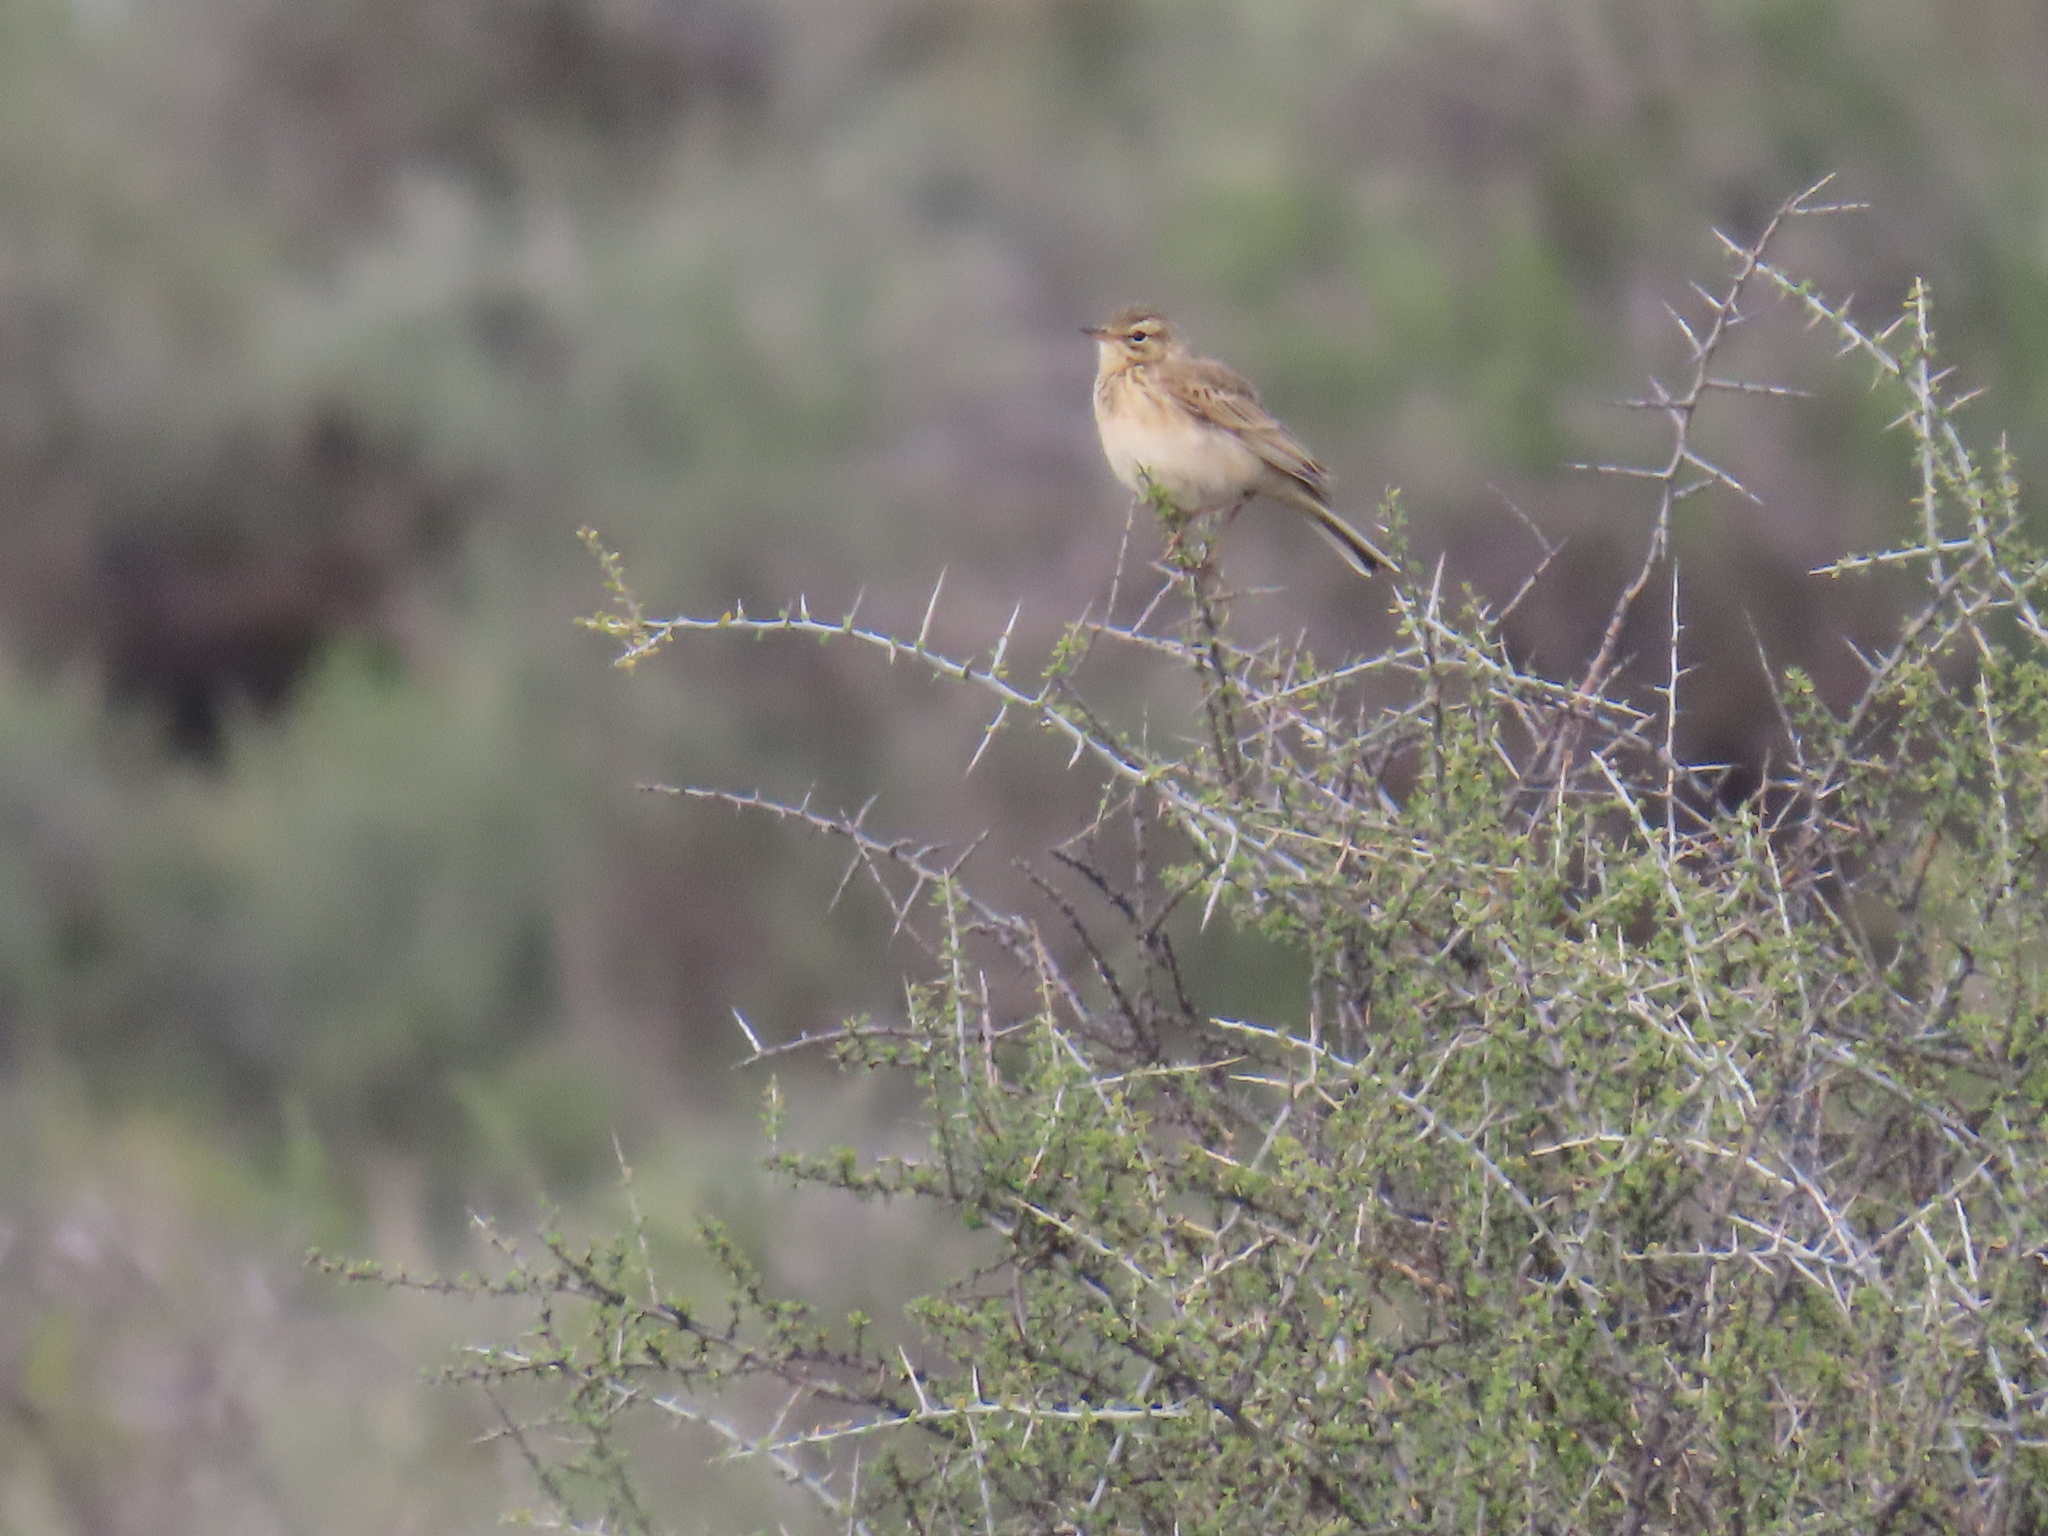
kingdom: Animalia
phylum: Chordata
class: Aves
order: Passeriformes
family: Motacillidae
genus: Anthus
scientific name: Anthus cinnamomeus
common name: African pipit
